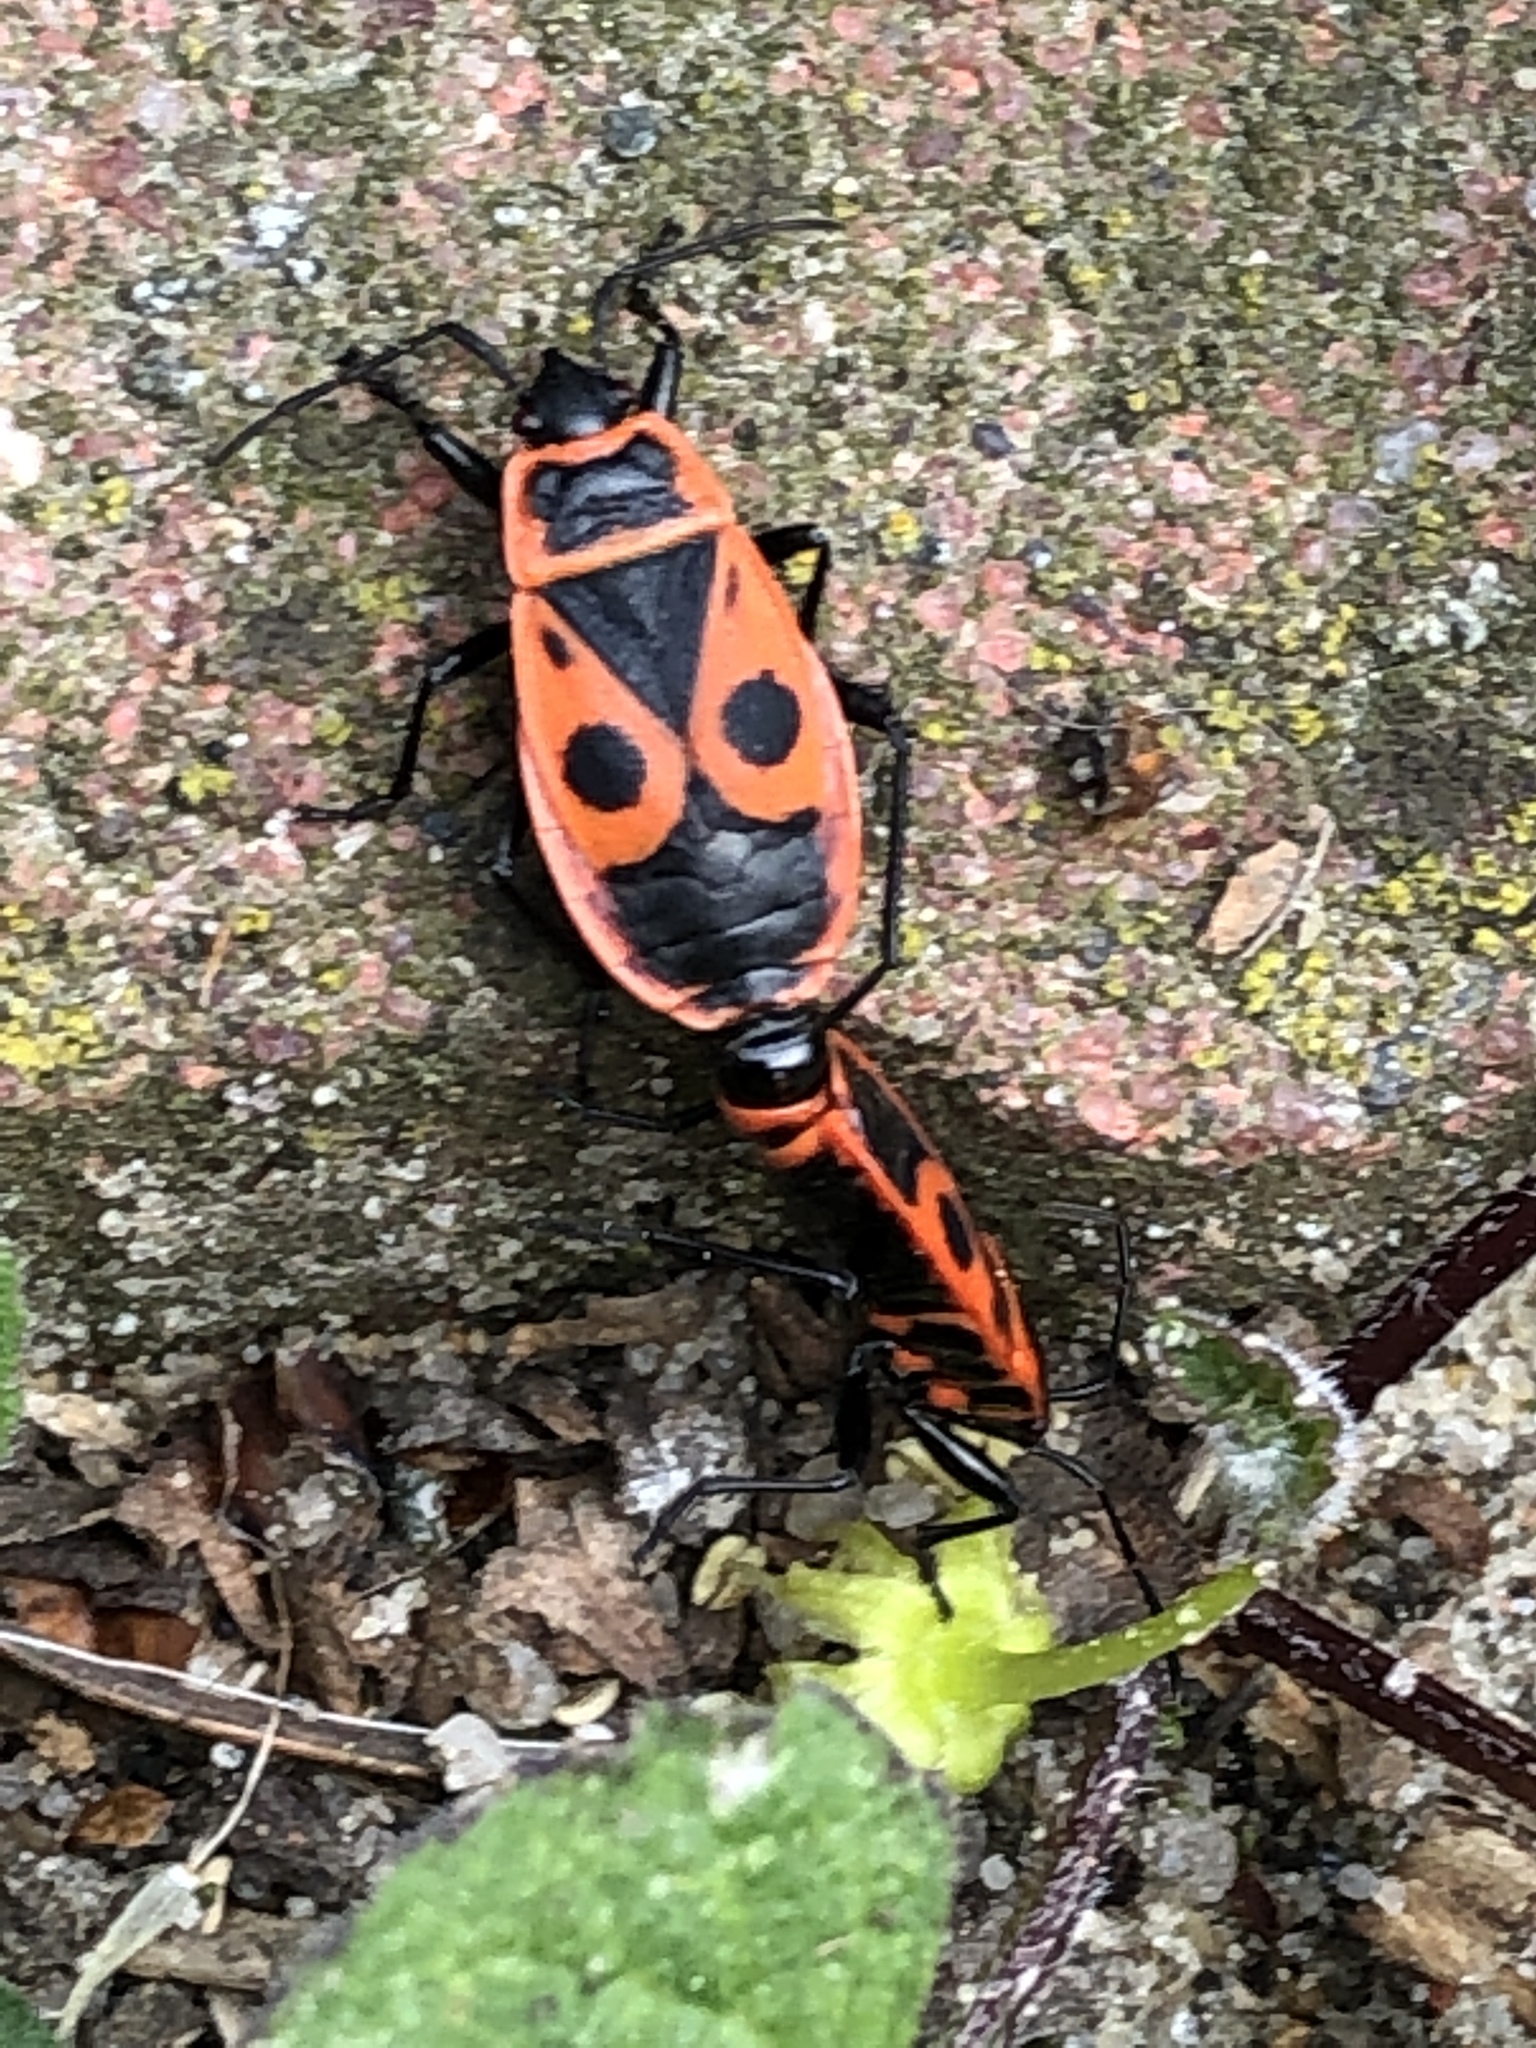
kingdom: Animalia
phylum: Arthropoda
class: Insecta
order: Hemiptera
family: Pyrrhocoridae
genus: Pyrrhocoris
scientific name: Pyrrhocoris apterus
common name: Firebug
